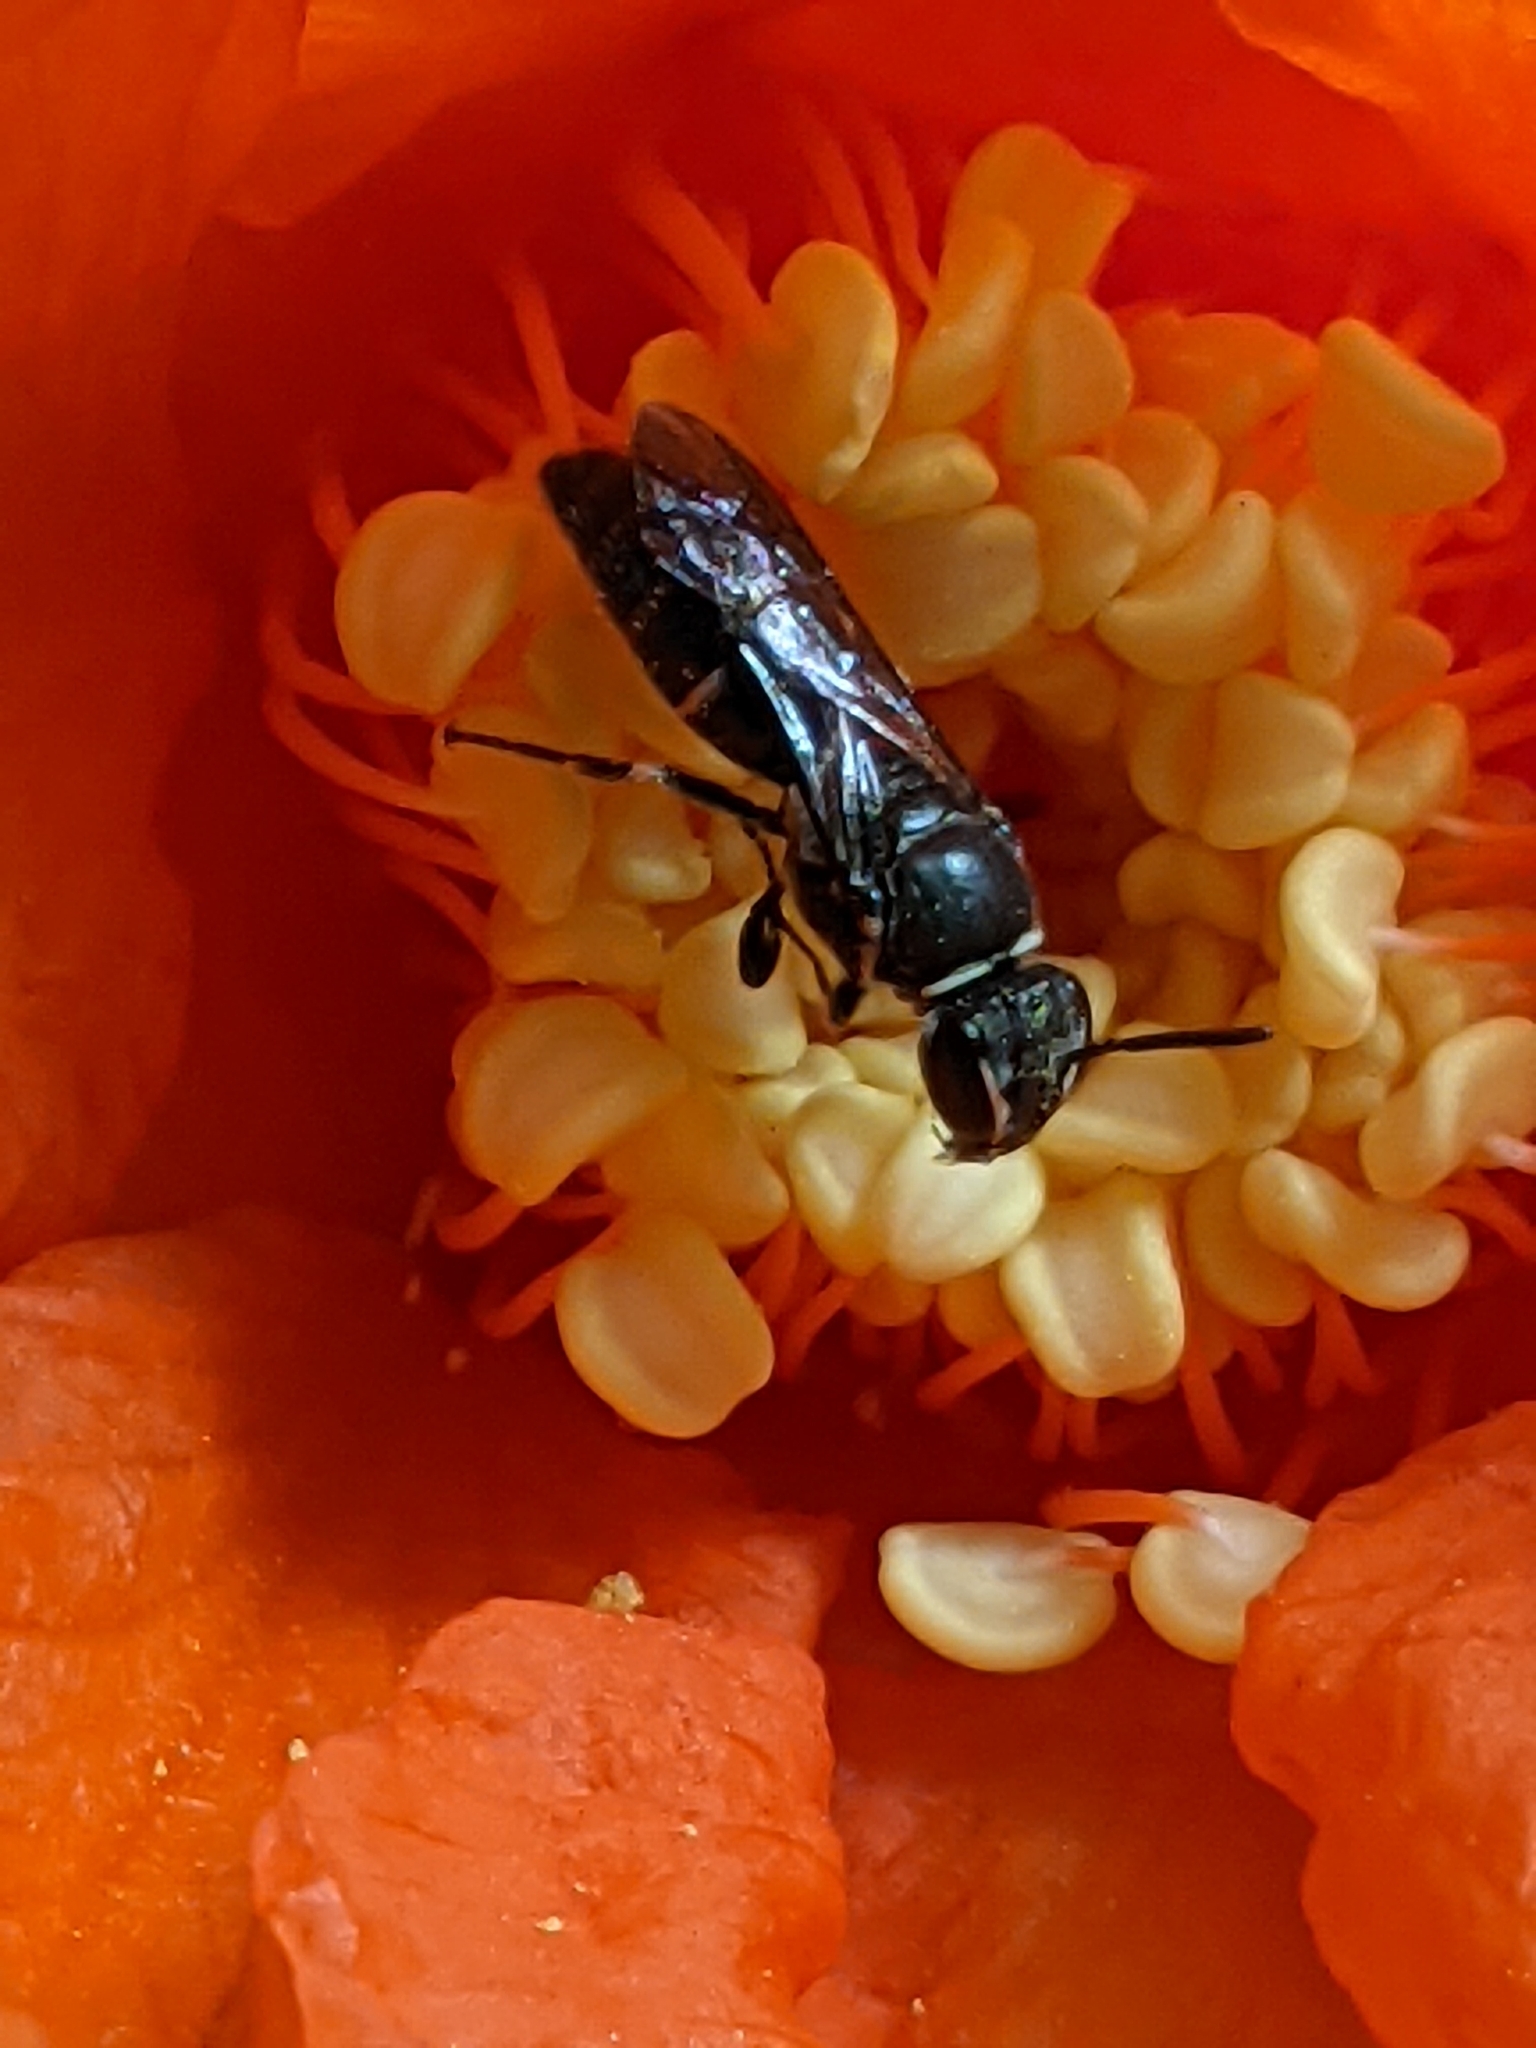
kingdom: Animalia
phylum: Arthropoda
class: Insecta
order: Hymenoptera
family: Colletidae
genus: Hylaeus
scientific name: Hylaeus
